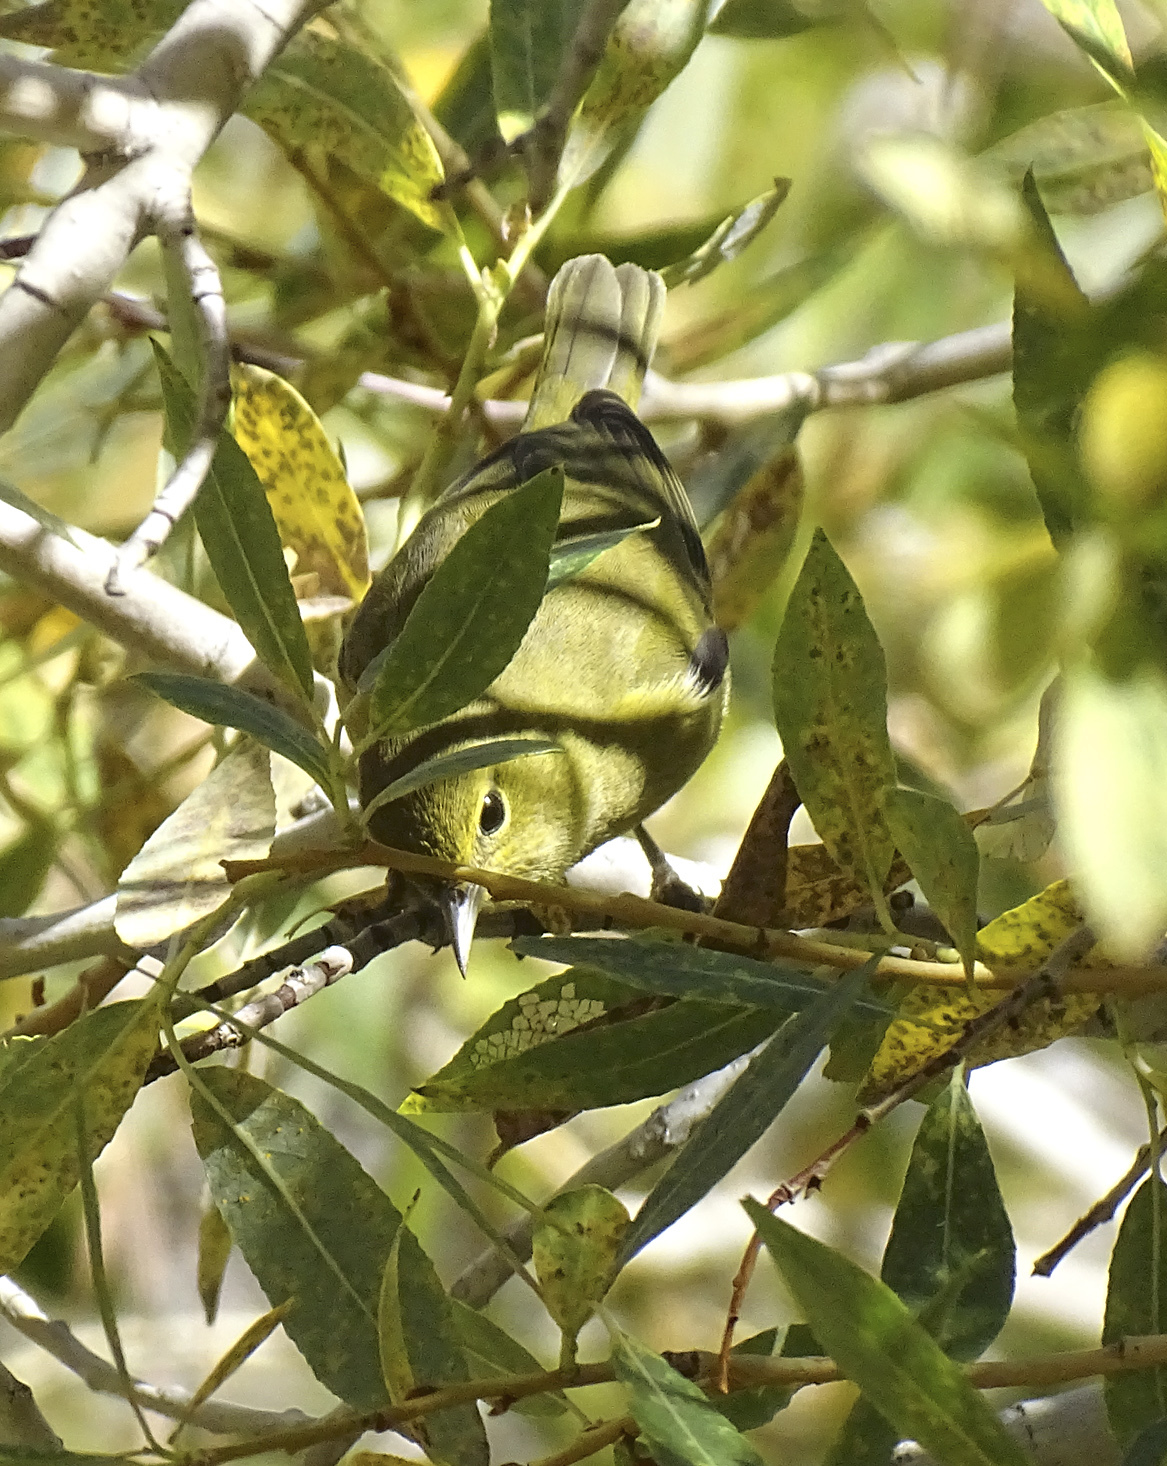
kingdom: Animalia
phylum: Chordata
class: Aves
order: Passeriformes
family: Parulidae
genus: Leiothlypis
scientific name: Leiothlypis celata
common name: Orange-crowned warbler
